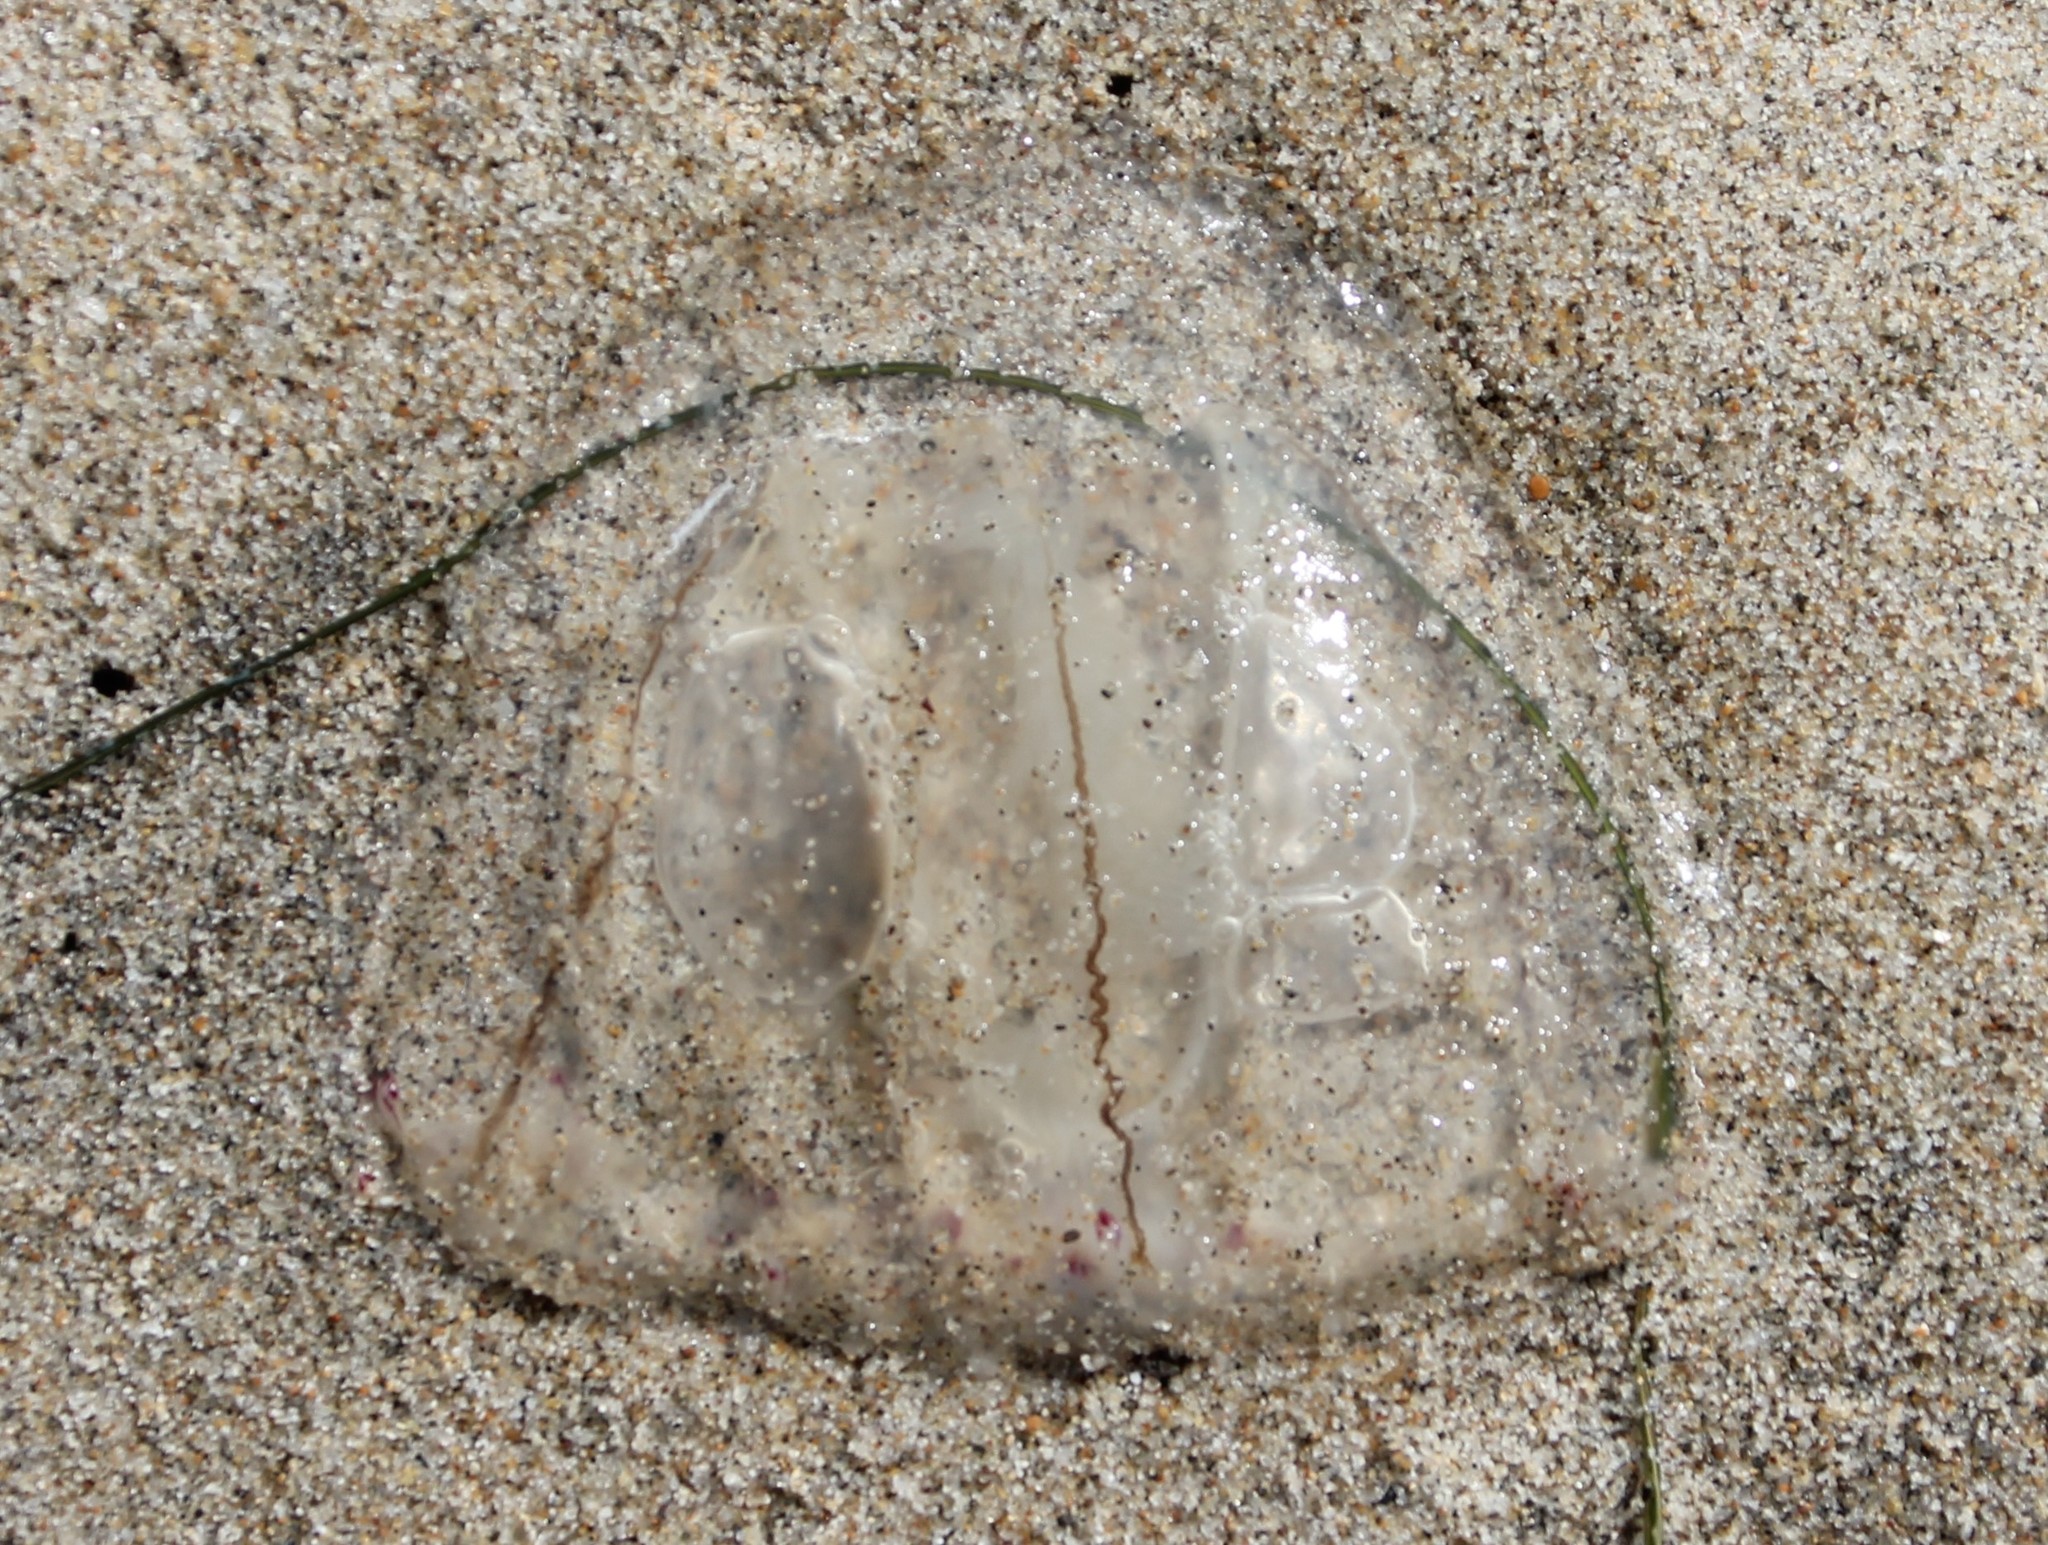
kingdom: Animalia
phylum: Cnidaria
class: Hydrozoa
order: Anthoathecata
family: Corynidae
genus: Scrippsia
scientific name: Scrippsia pacifica
